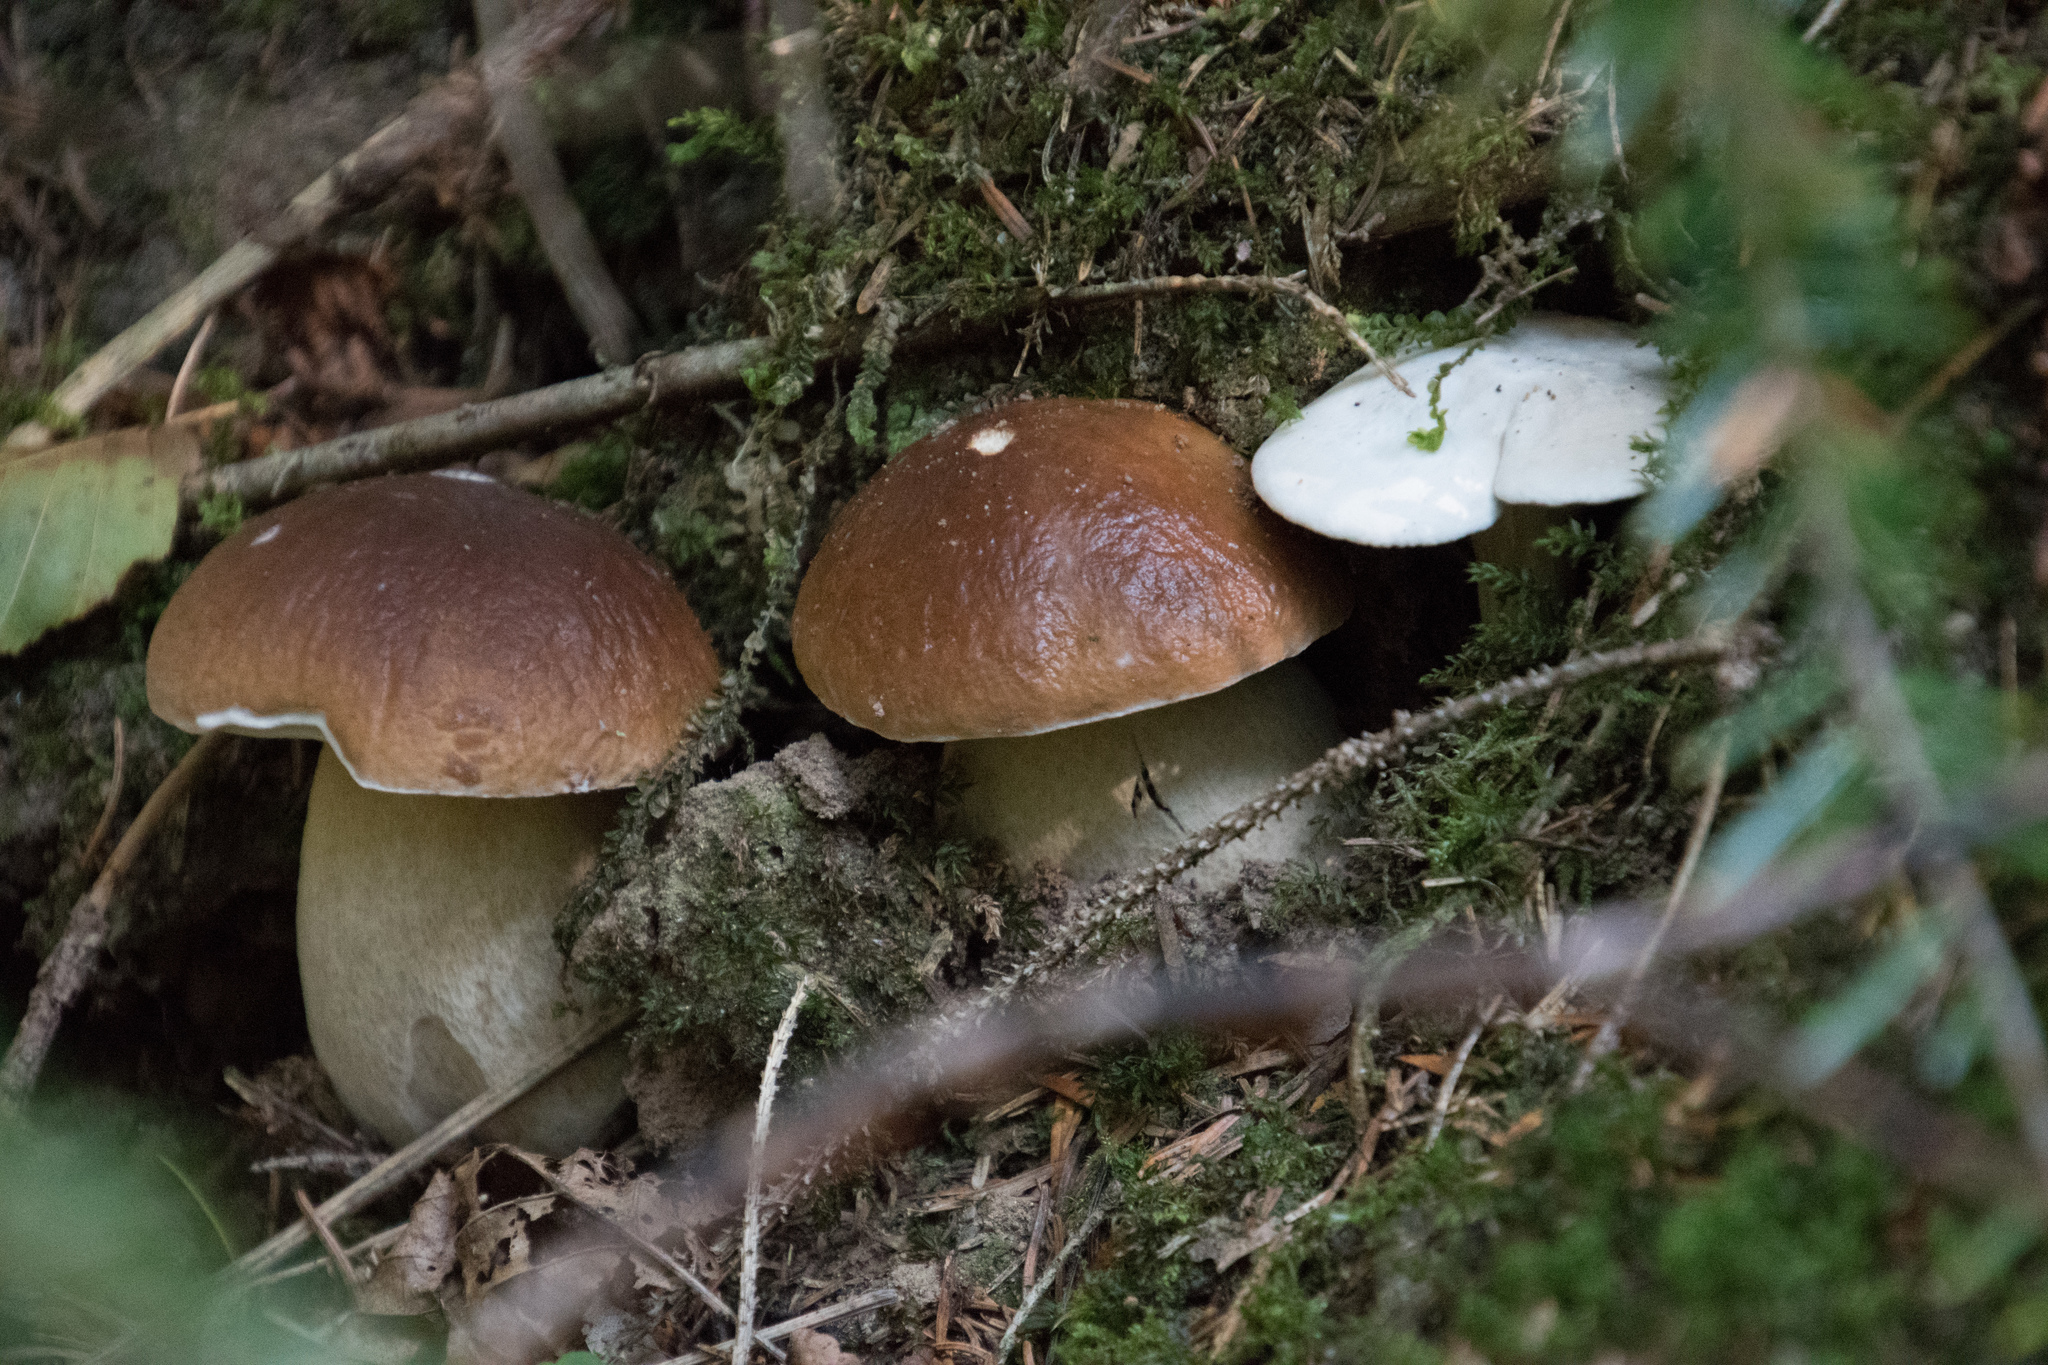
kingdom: Fungi
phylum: Basidiomycota
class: Agaricomycetes
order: Boletales
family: Boletaceae
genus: Boletus
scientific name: Boletus edulis
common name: Cep
